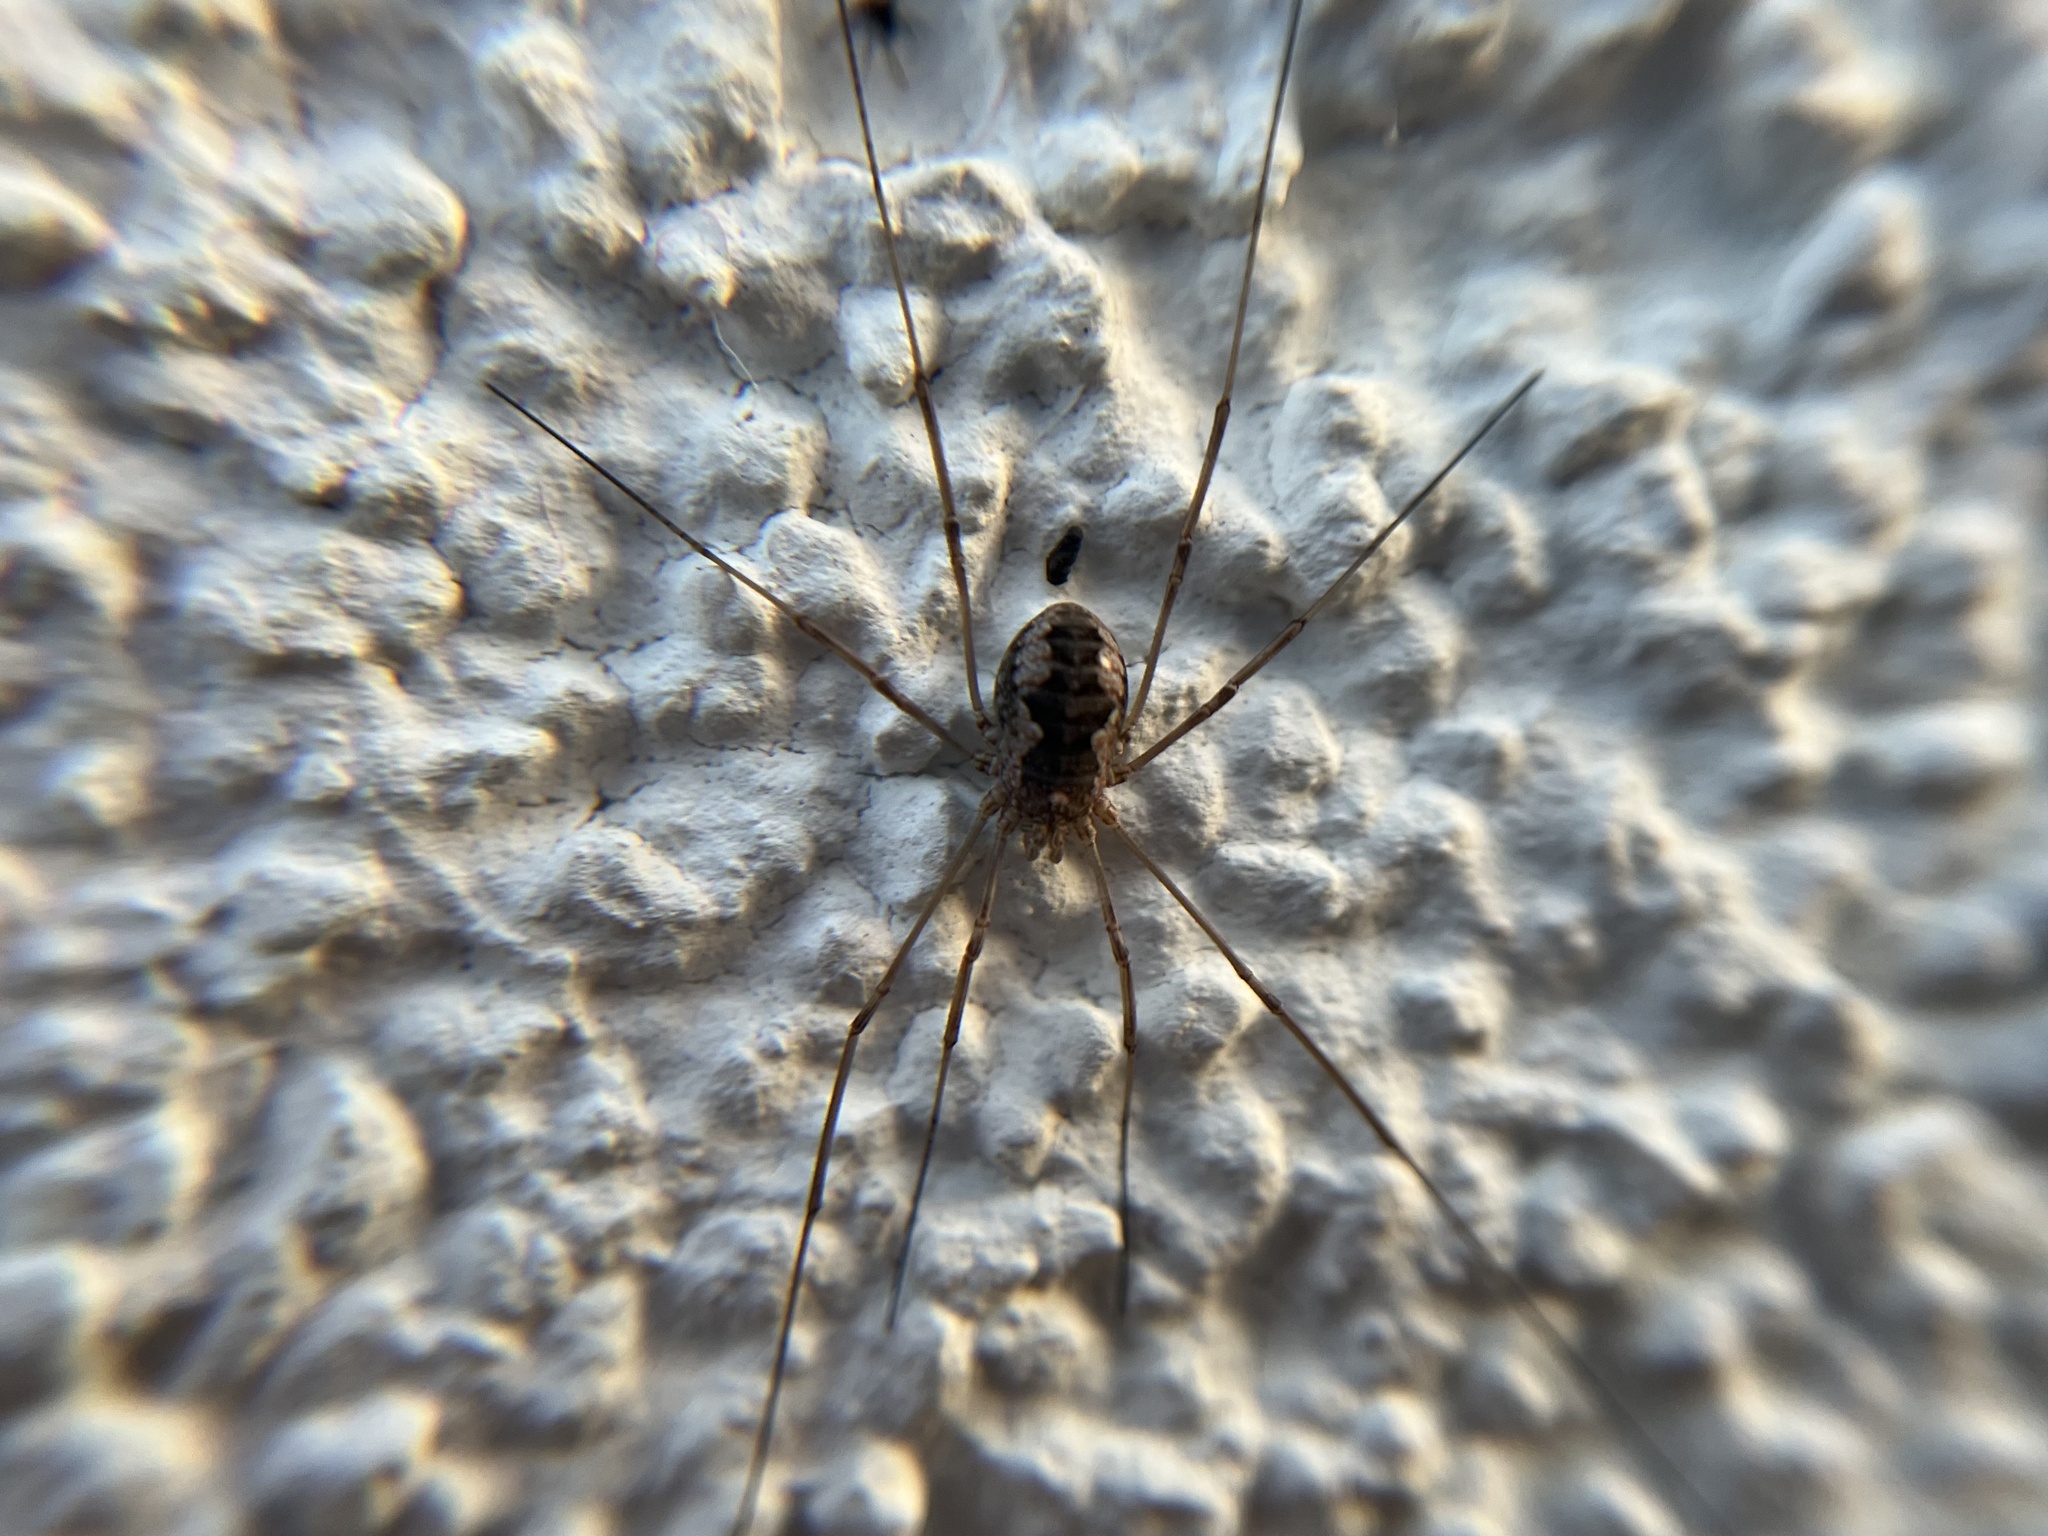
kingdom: Animalia
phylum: Arthropoda
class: Arachnida
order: Opiliones
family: Phalangiidae
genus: Phalangium
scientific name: Phalangium opilio
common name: Daddy longleg
